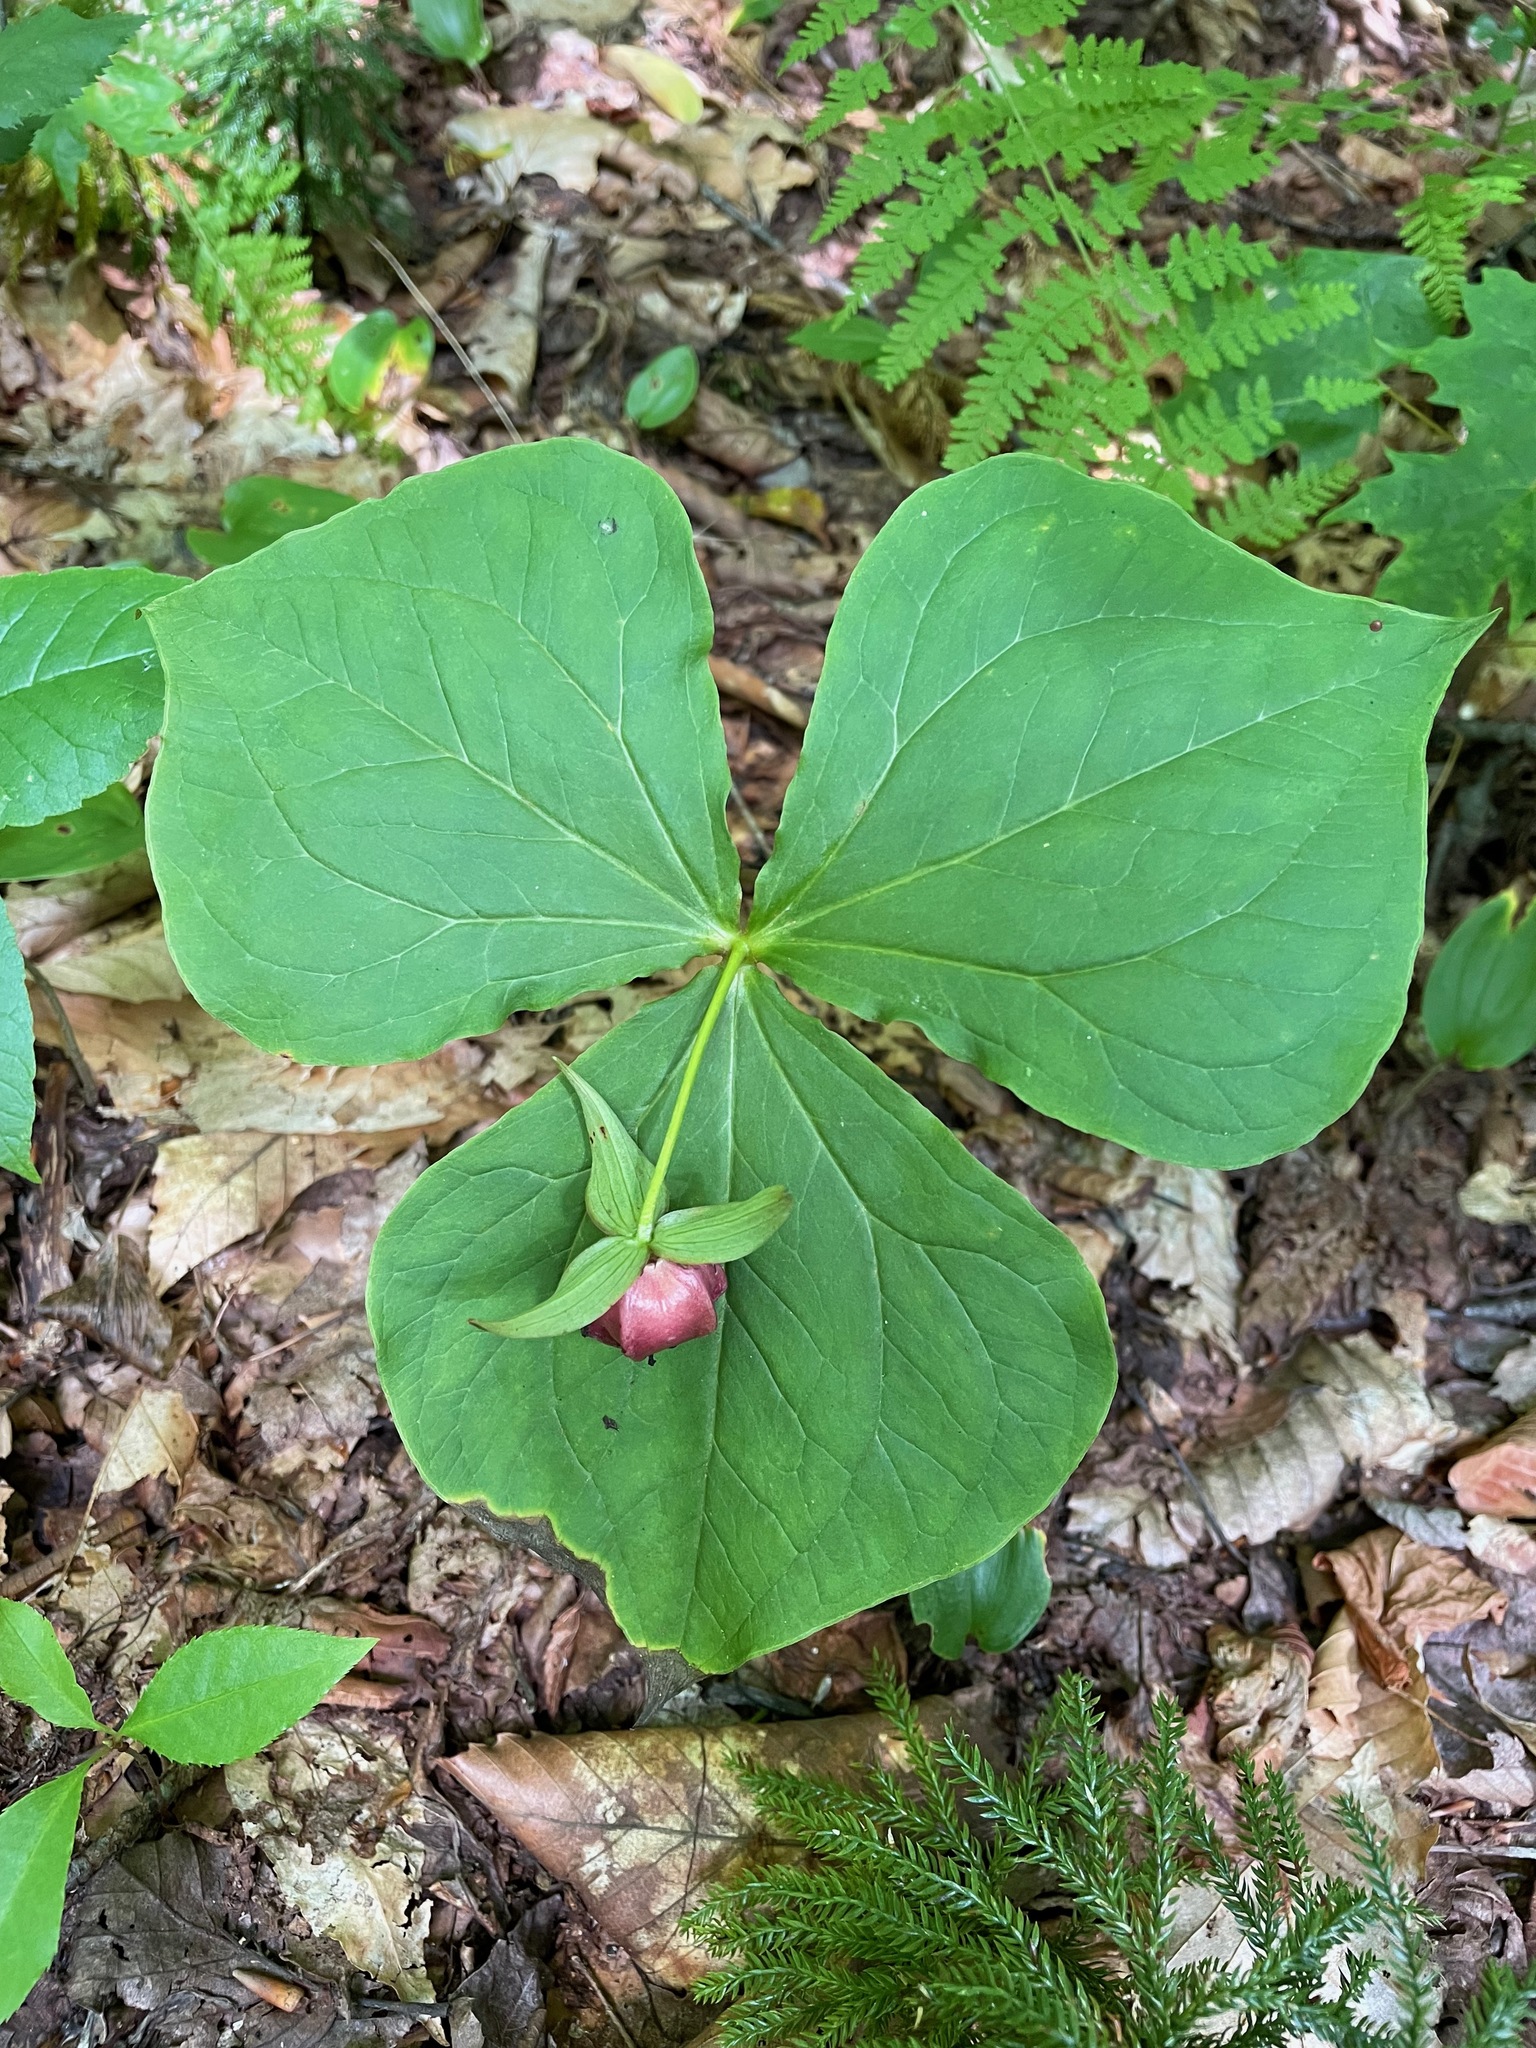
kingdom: Plantae
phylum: Tracheophyta
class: Liliopsida
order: Liliales
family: Melanthiaceae
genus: Trillium
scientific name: Trillium erectum
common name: Purple trillium
